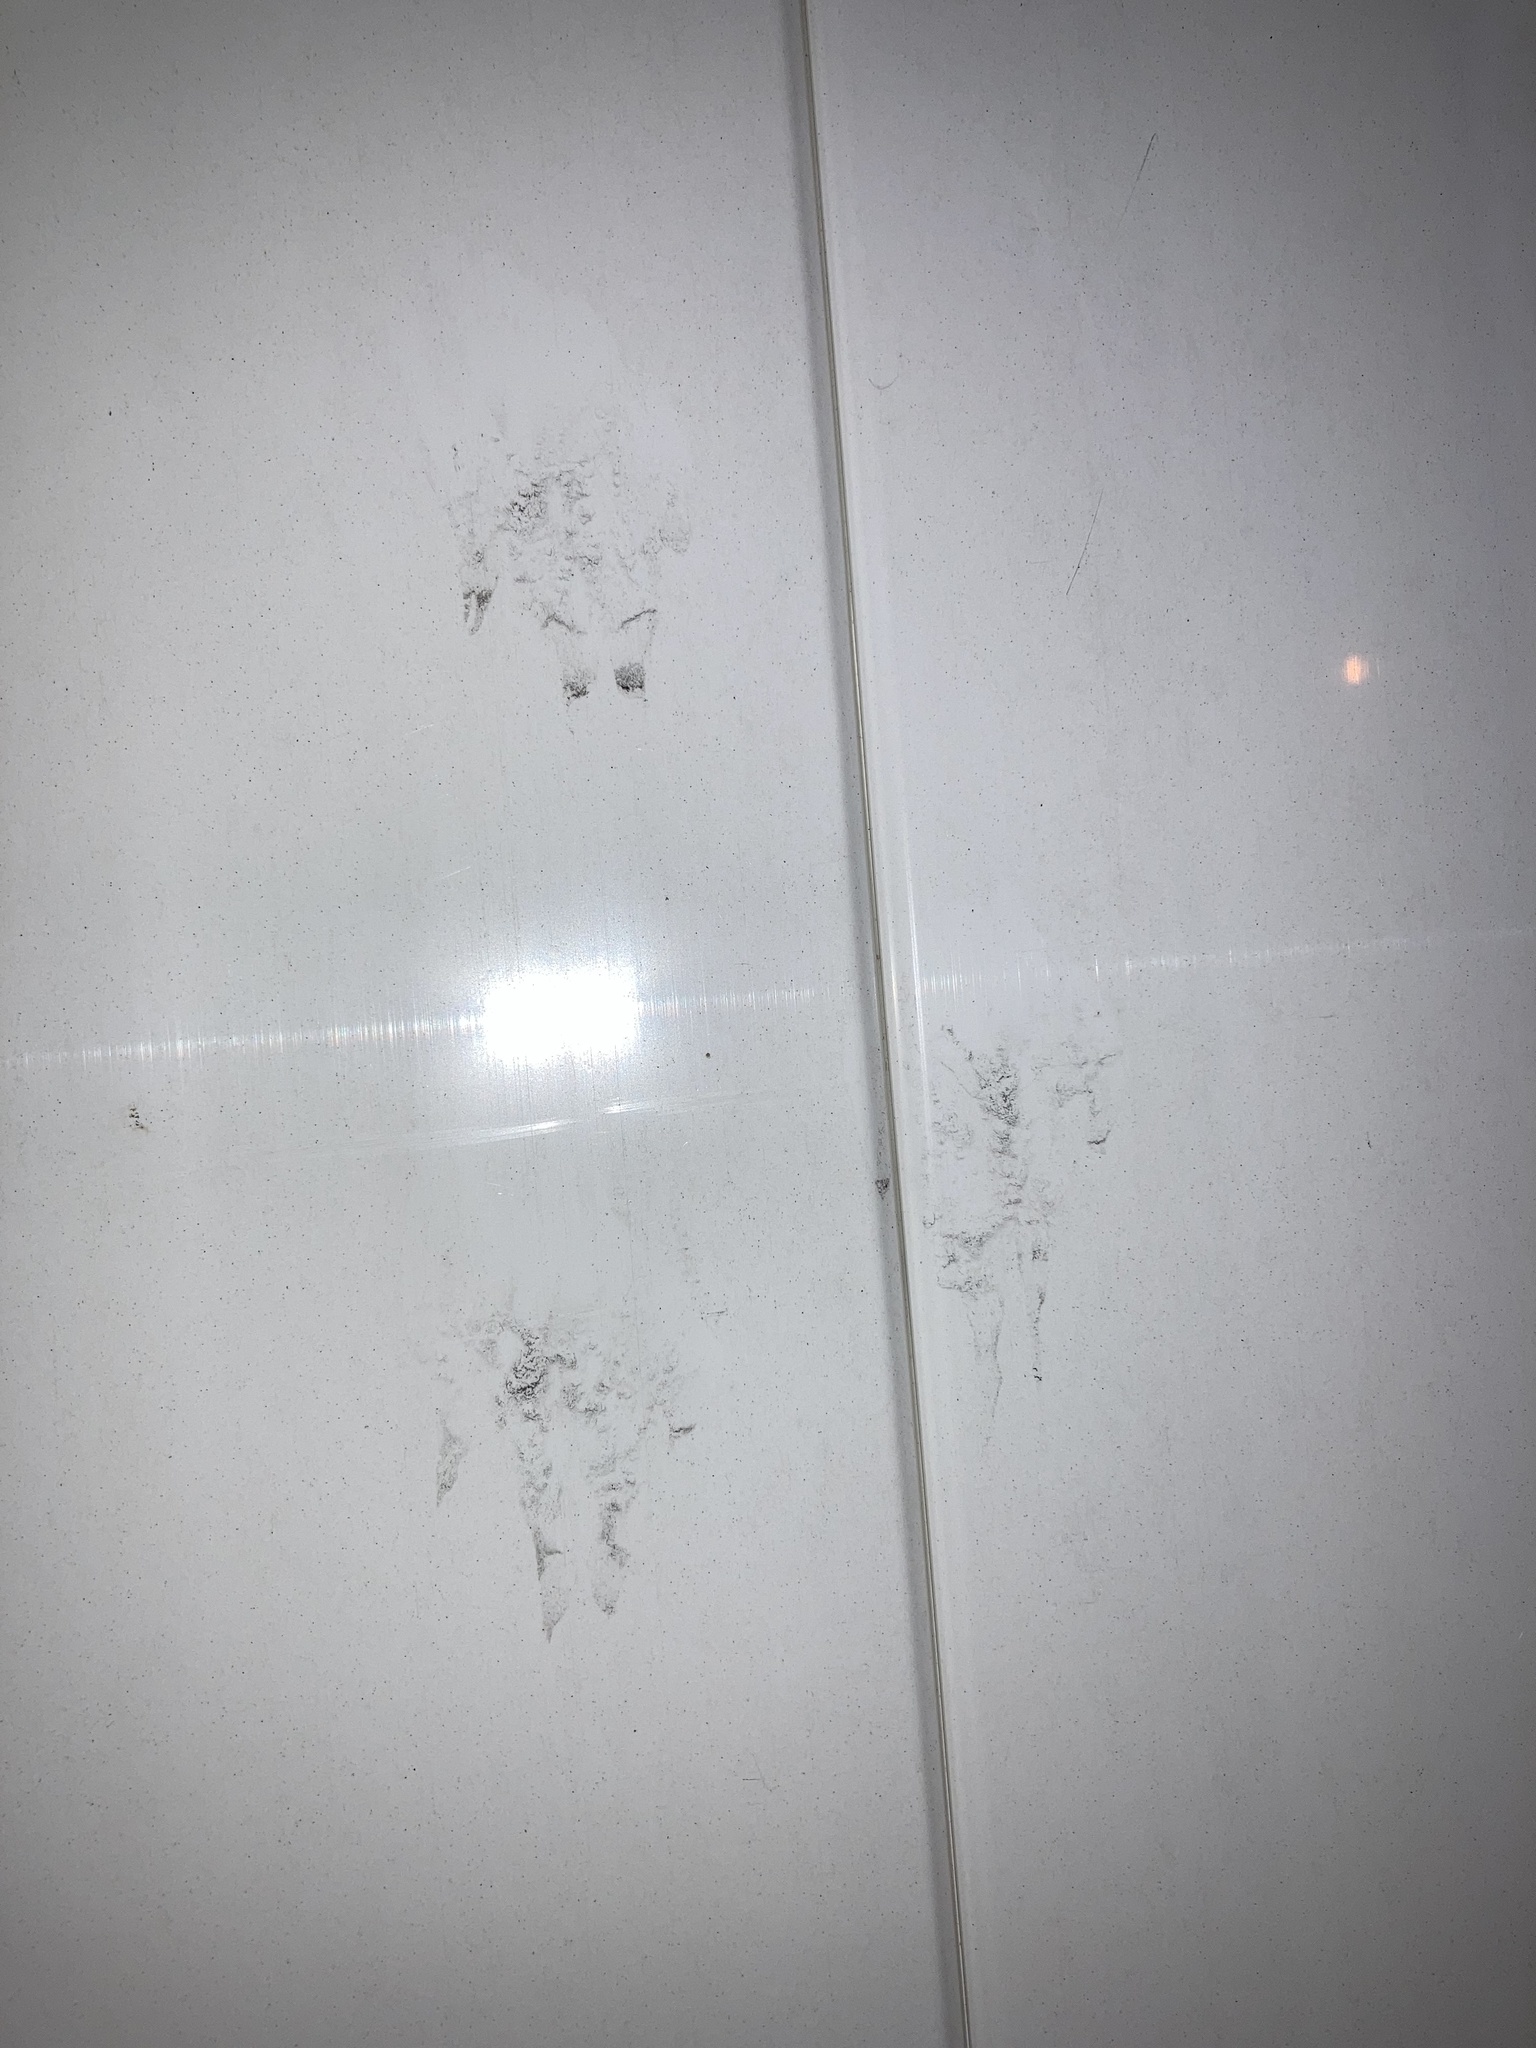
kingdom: Animalia
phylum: Chordata
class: Mammalia
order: Carnivora
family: Felidae
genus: Felis
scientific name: Felis catus
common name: Domestic cat
